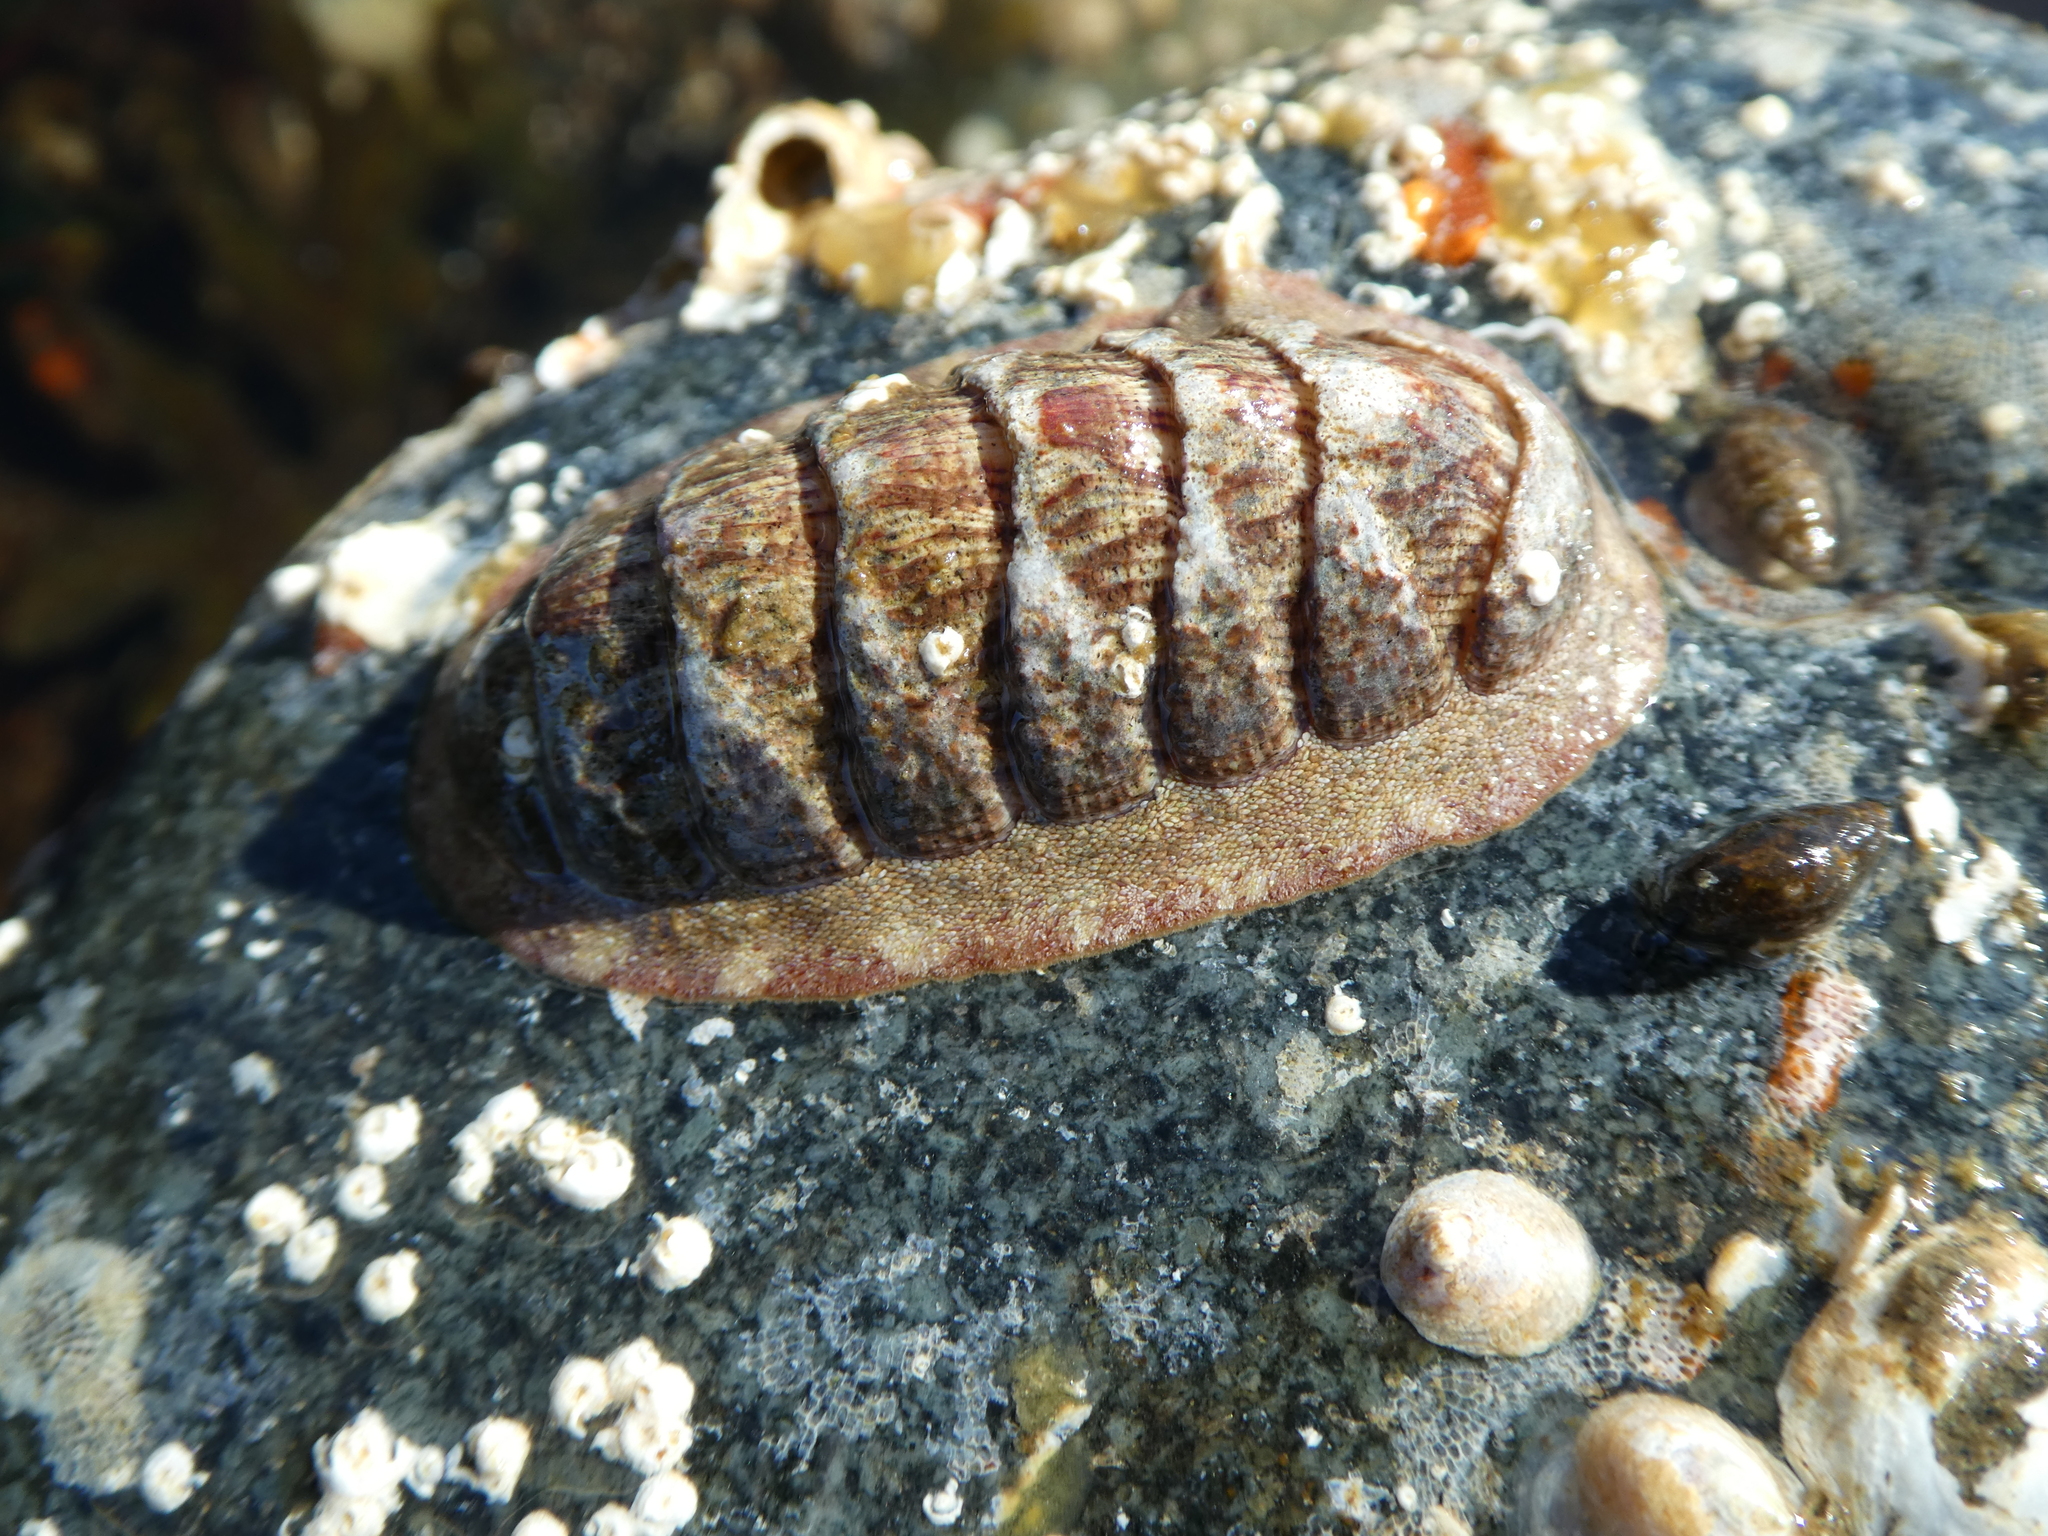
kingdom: Animalia
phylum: Mollusca
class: Polyplacophora
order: Chitonida
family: Ischnochitonidae
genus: Lepidozona
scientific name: Lepidozona mertensii
